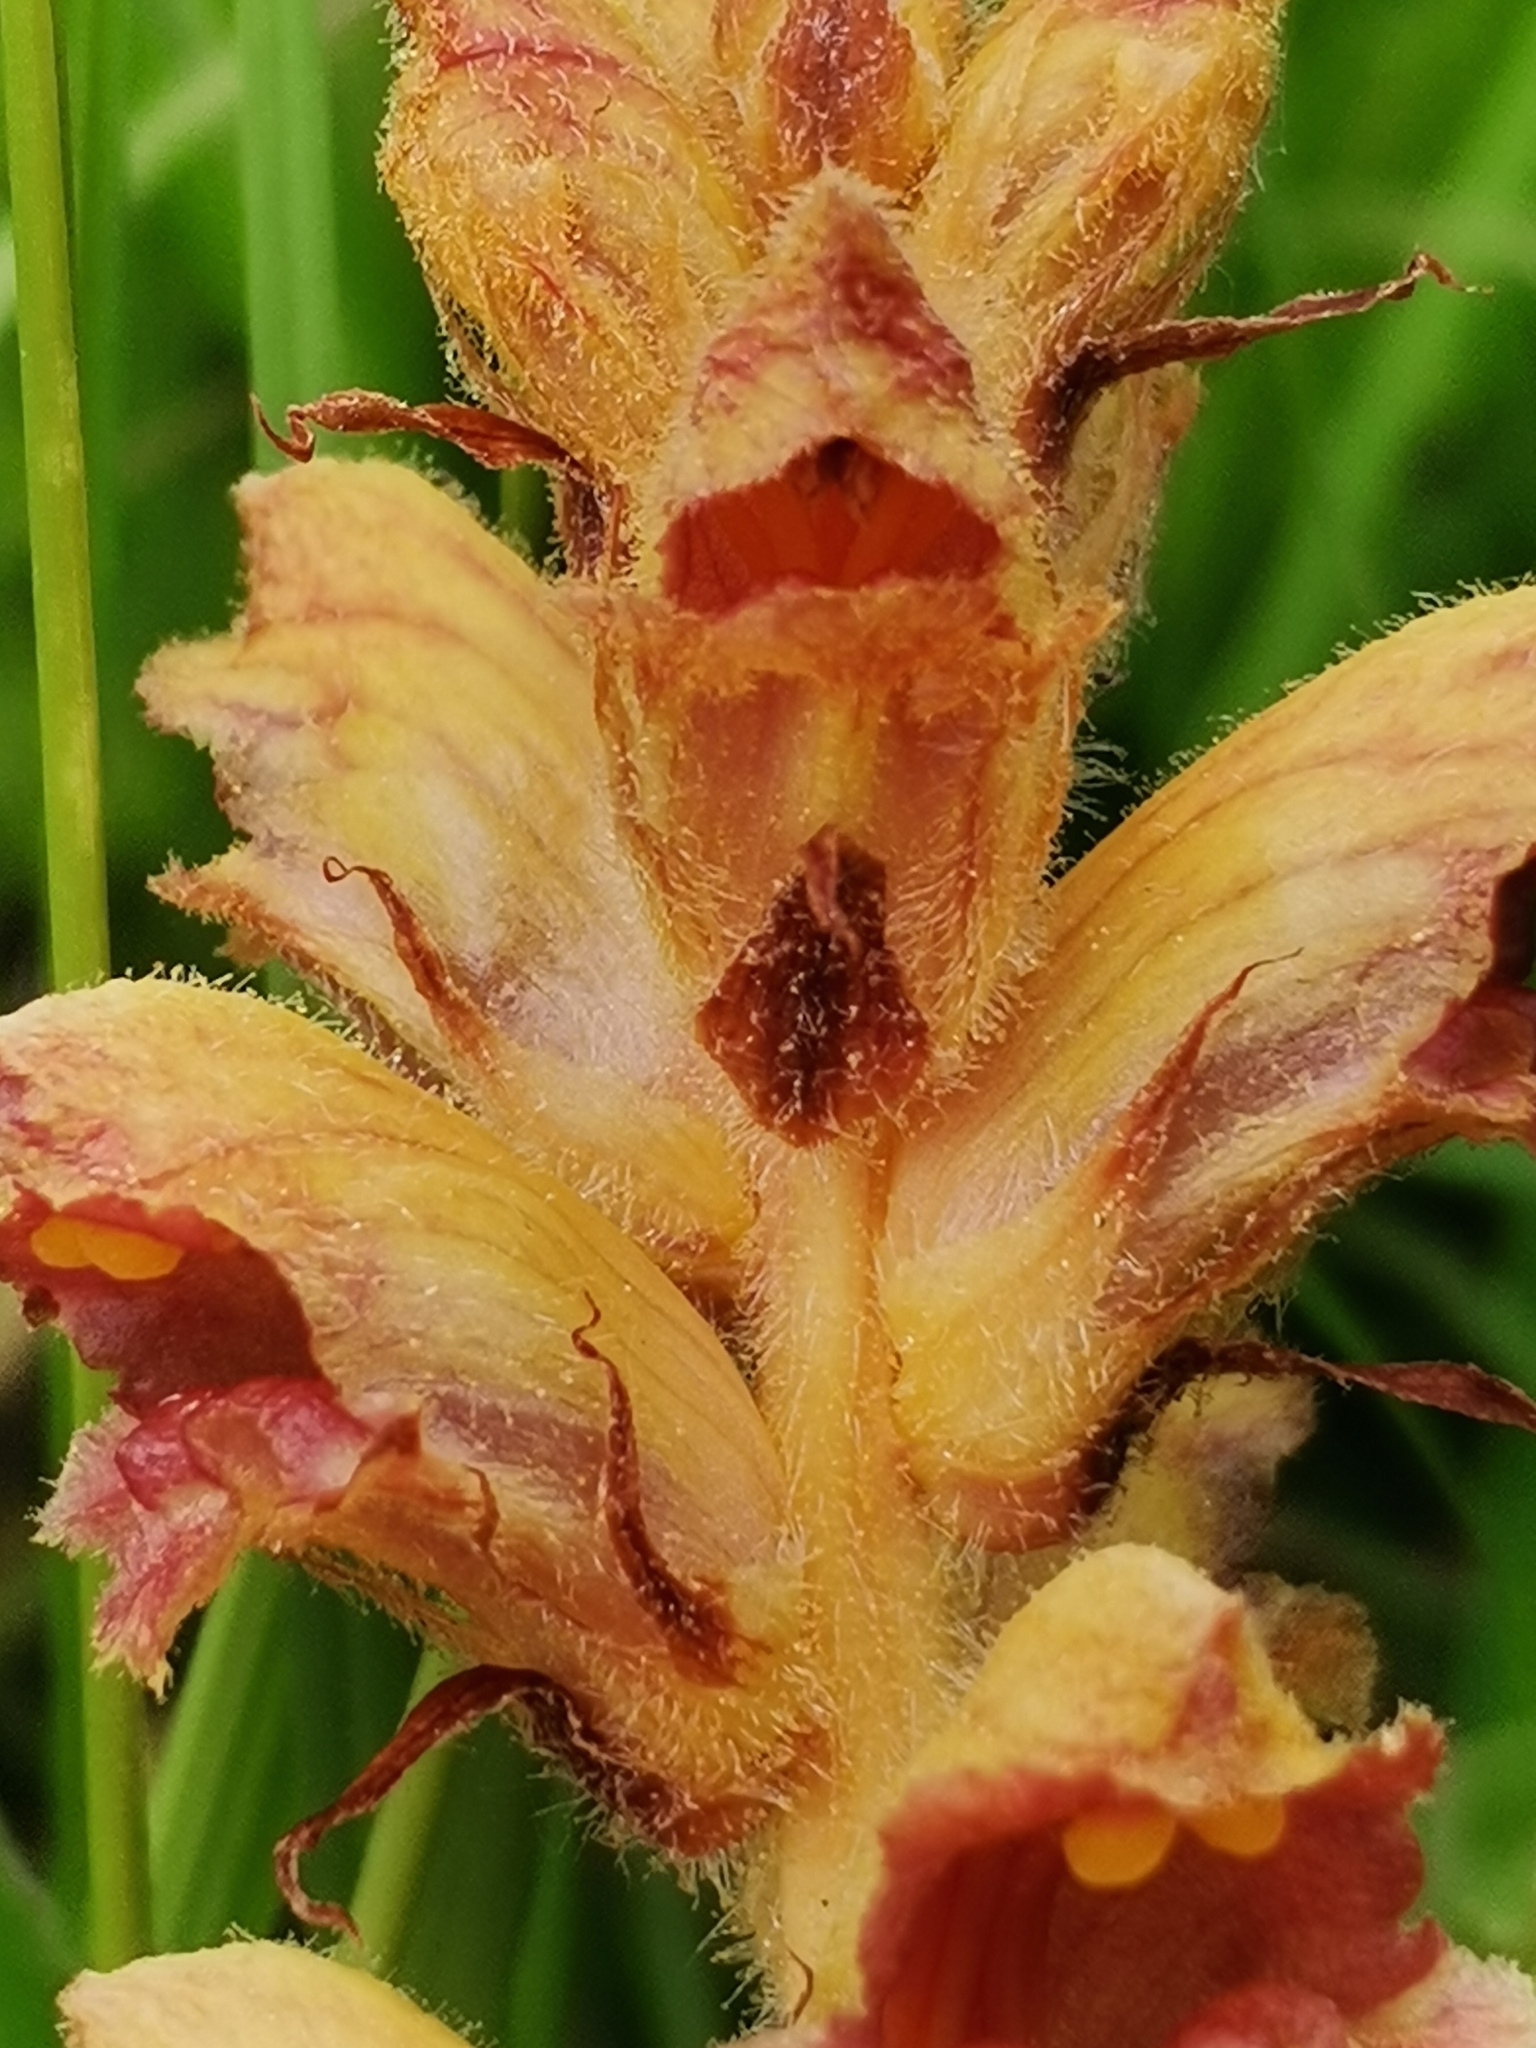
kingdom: Plantae
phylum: Tracheophyta
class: Magnoliopsida
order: Lamiales
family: Orobanchaceae
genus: Orobanche
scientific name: Orobanche gracilis
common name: Slender broomrape
